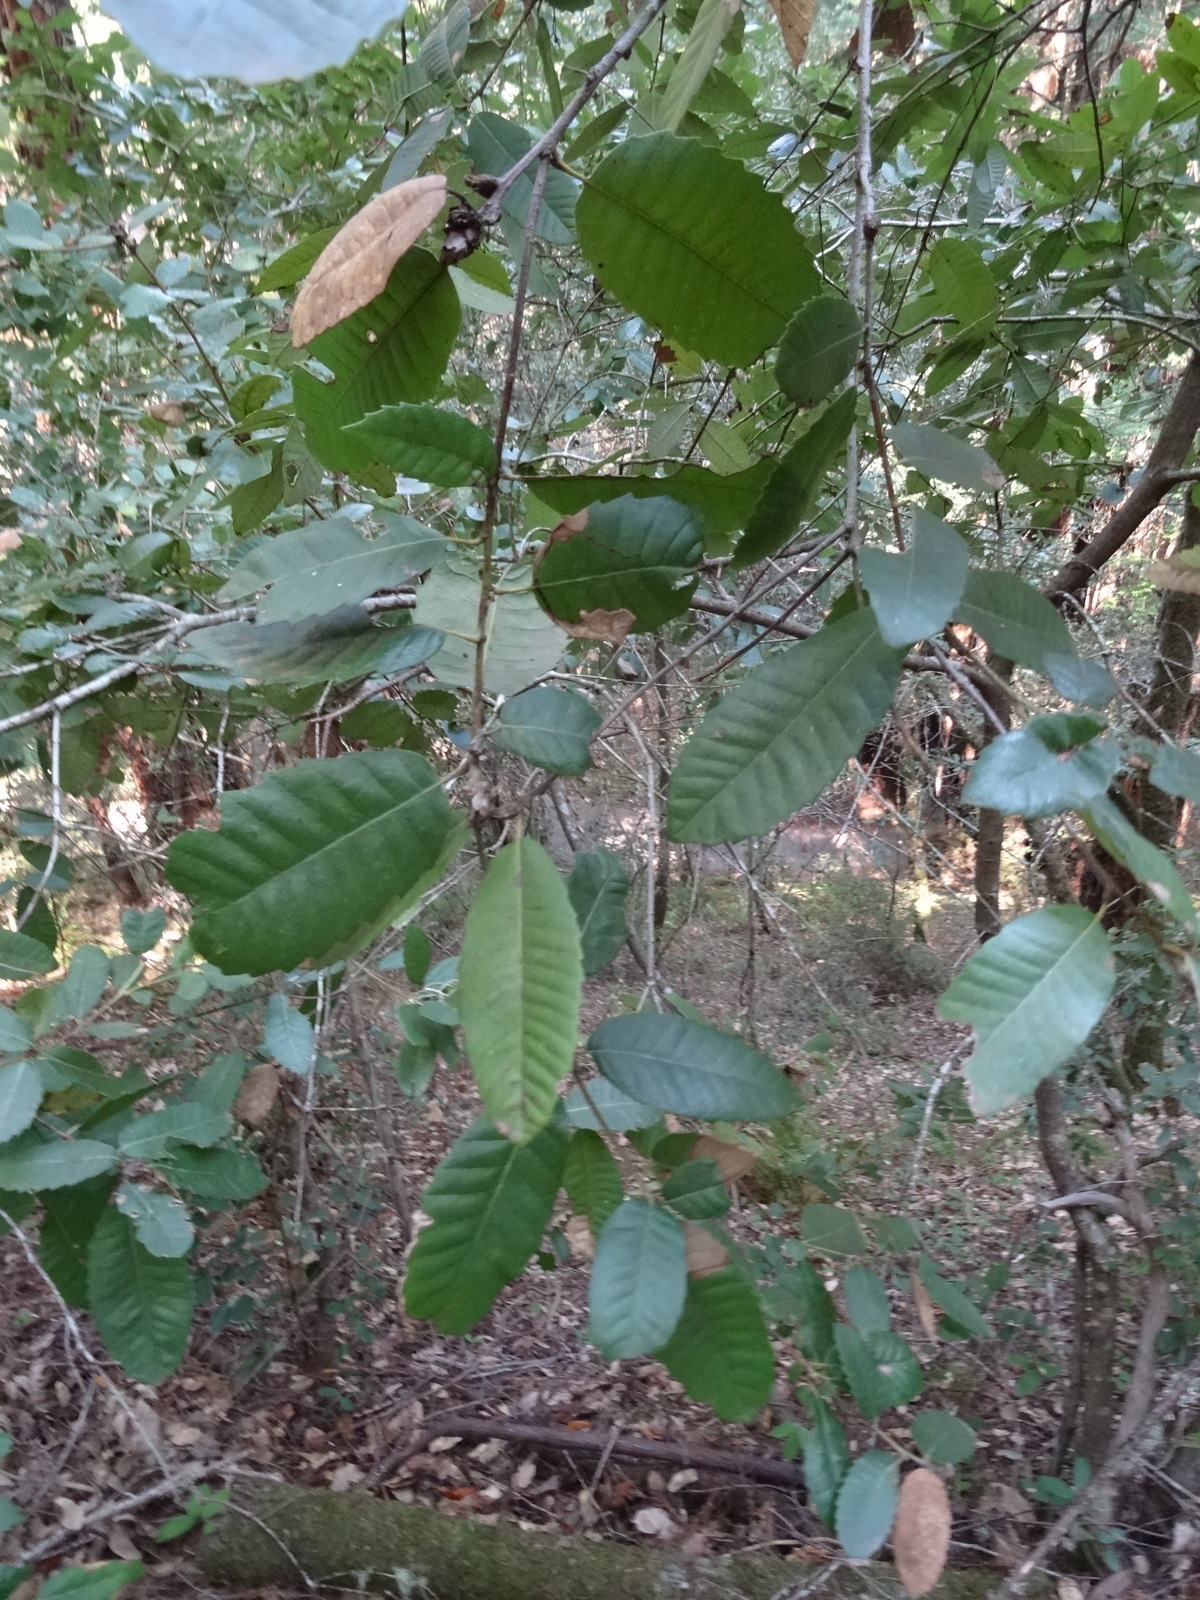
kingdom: Plantae
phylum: Tracheophyta
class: Magnoliopsida
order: Fagales
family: Fagaceae
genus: Notholithocarpus
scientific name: Notholithocarpus densiflorus
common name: Tan bark oak
